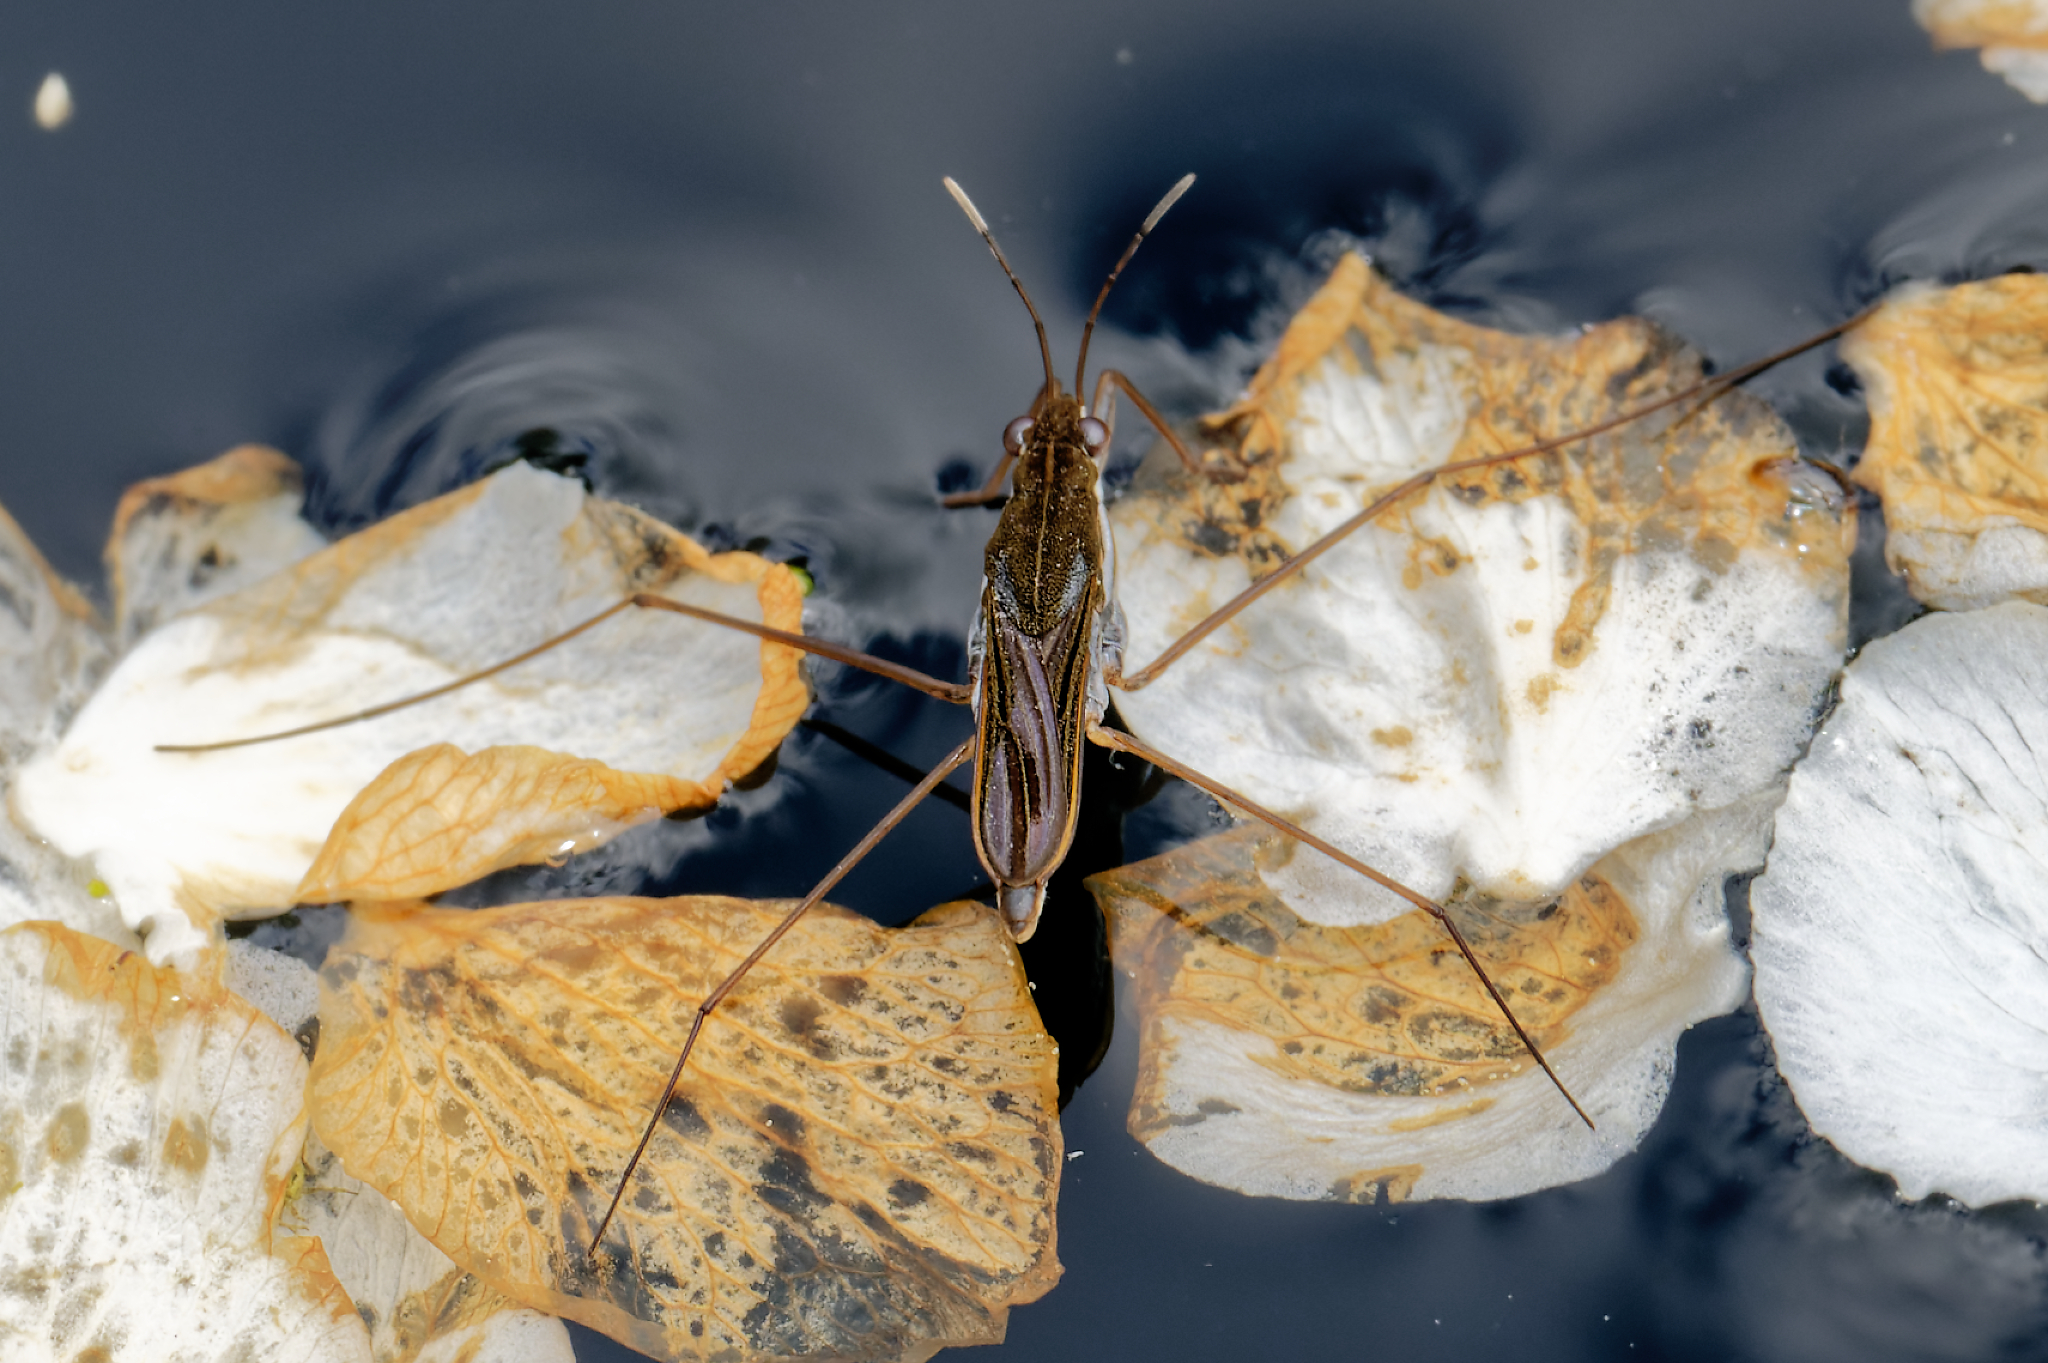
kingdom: Animalia
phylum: Arthropoda
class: Insecta
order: Hemiptera
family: Gerridae
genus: Gerris
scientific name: Gerris
